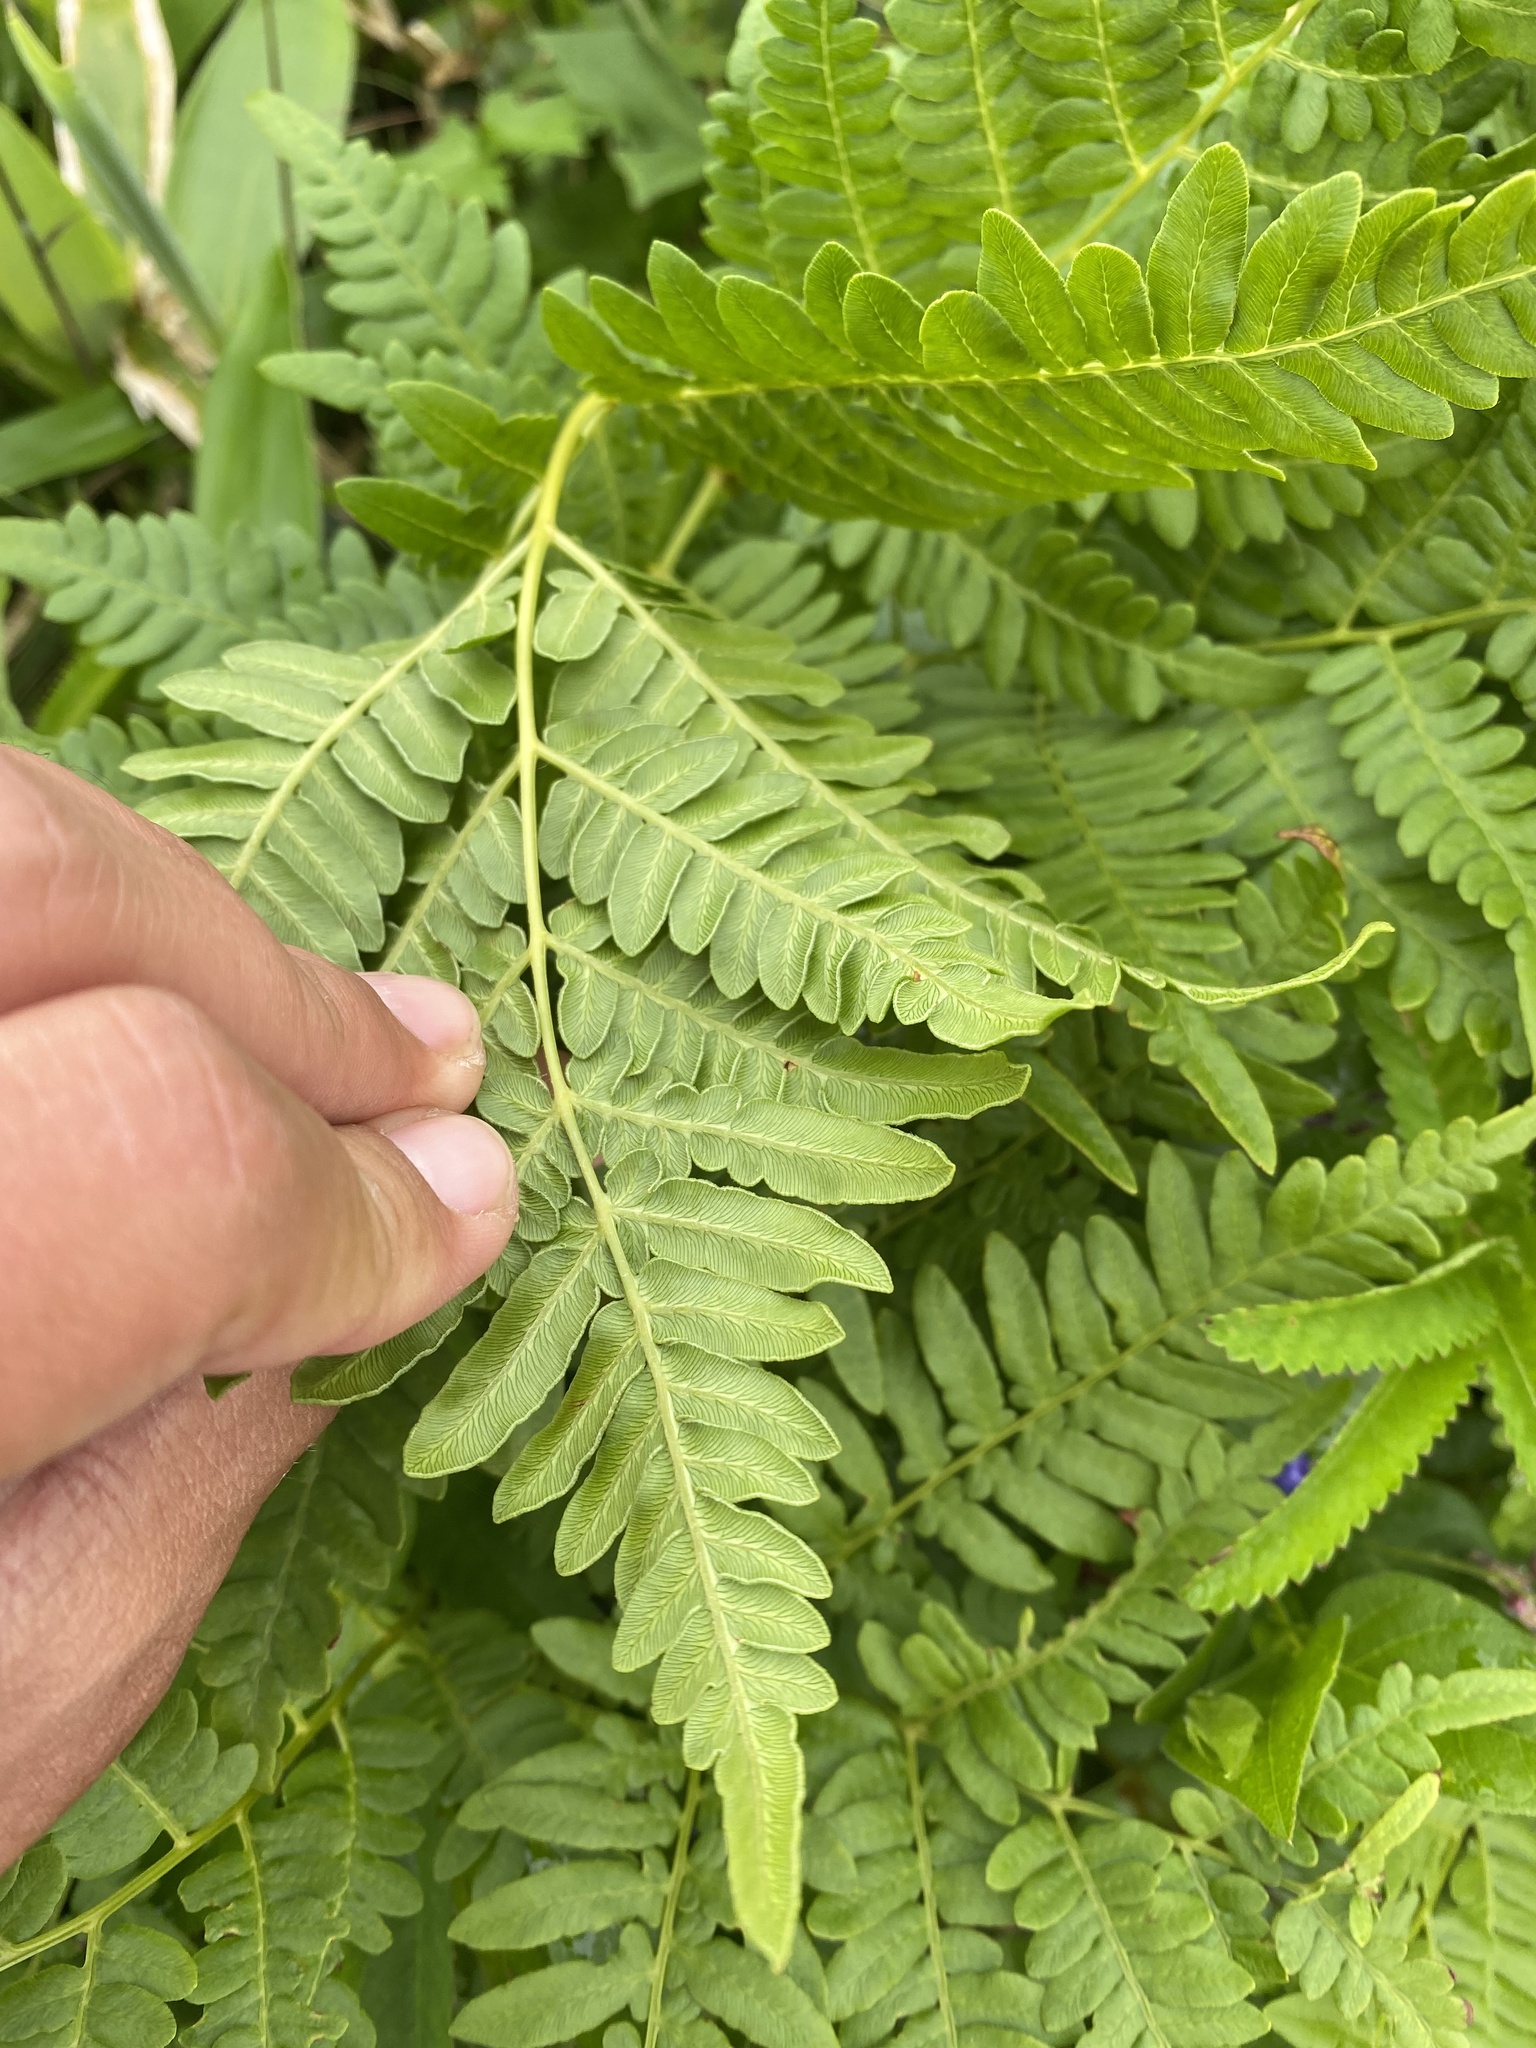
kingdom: Plantae
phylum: Tracheophyta
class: Polypodiopsida
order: Polypodiales
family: Dennstaedtiaceae
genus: Pteridium
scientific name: Pteridium aquilinum
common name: Bracken
